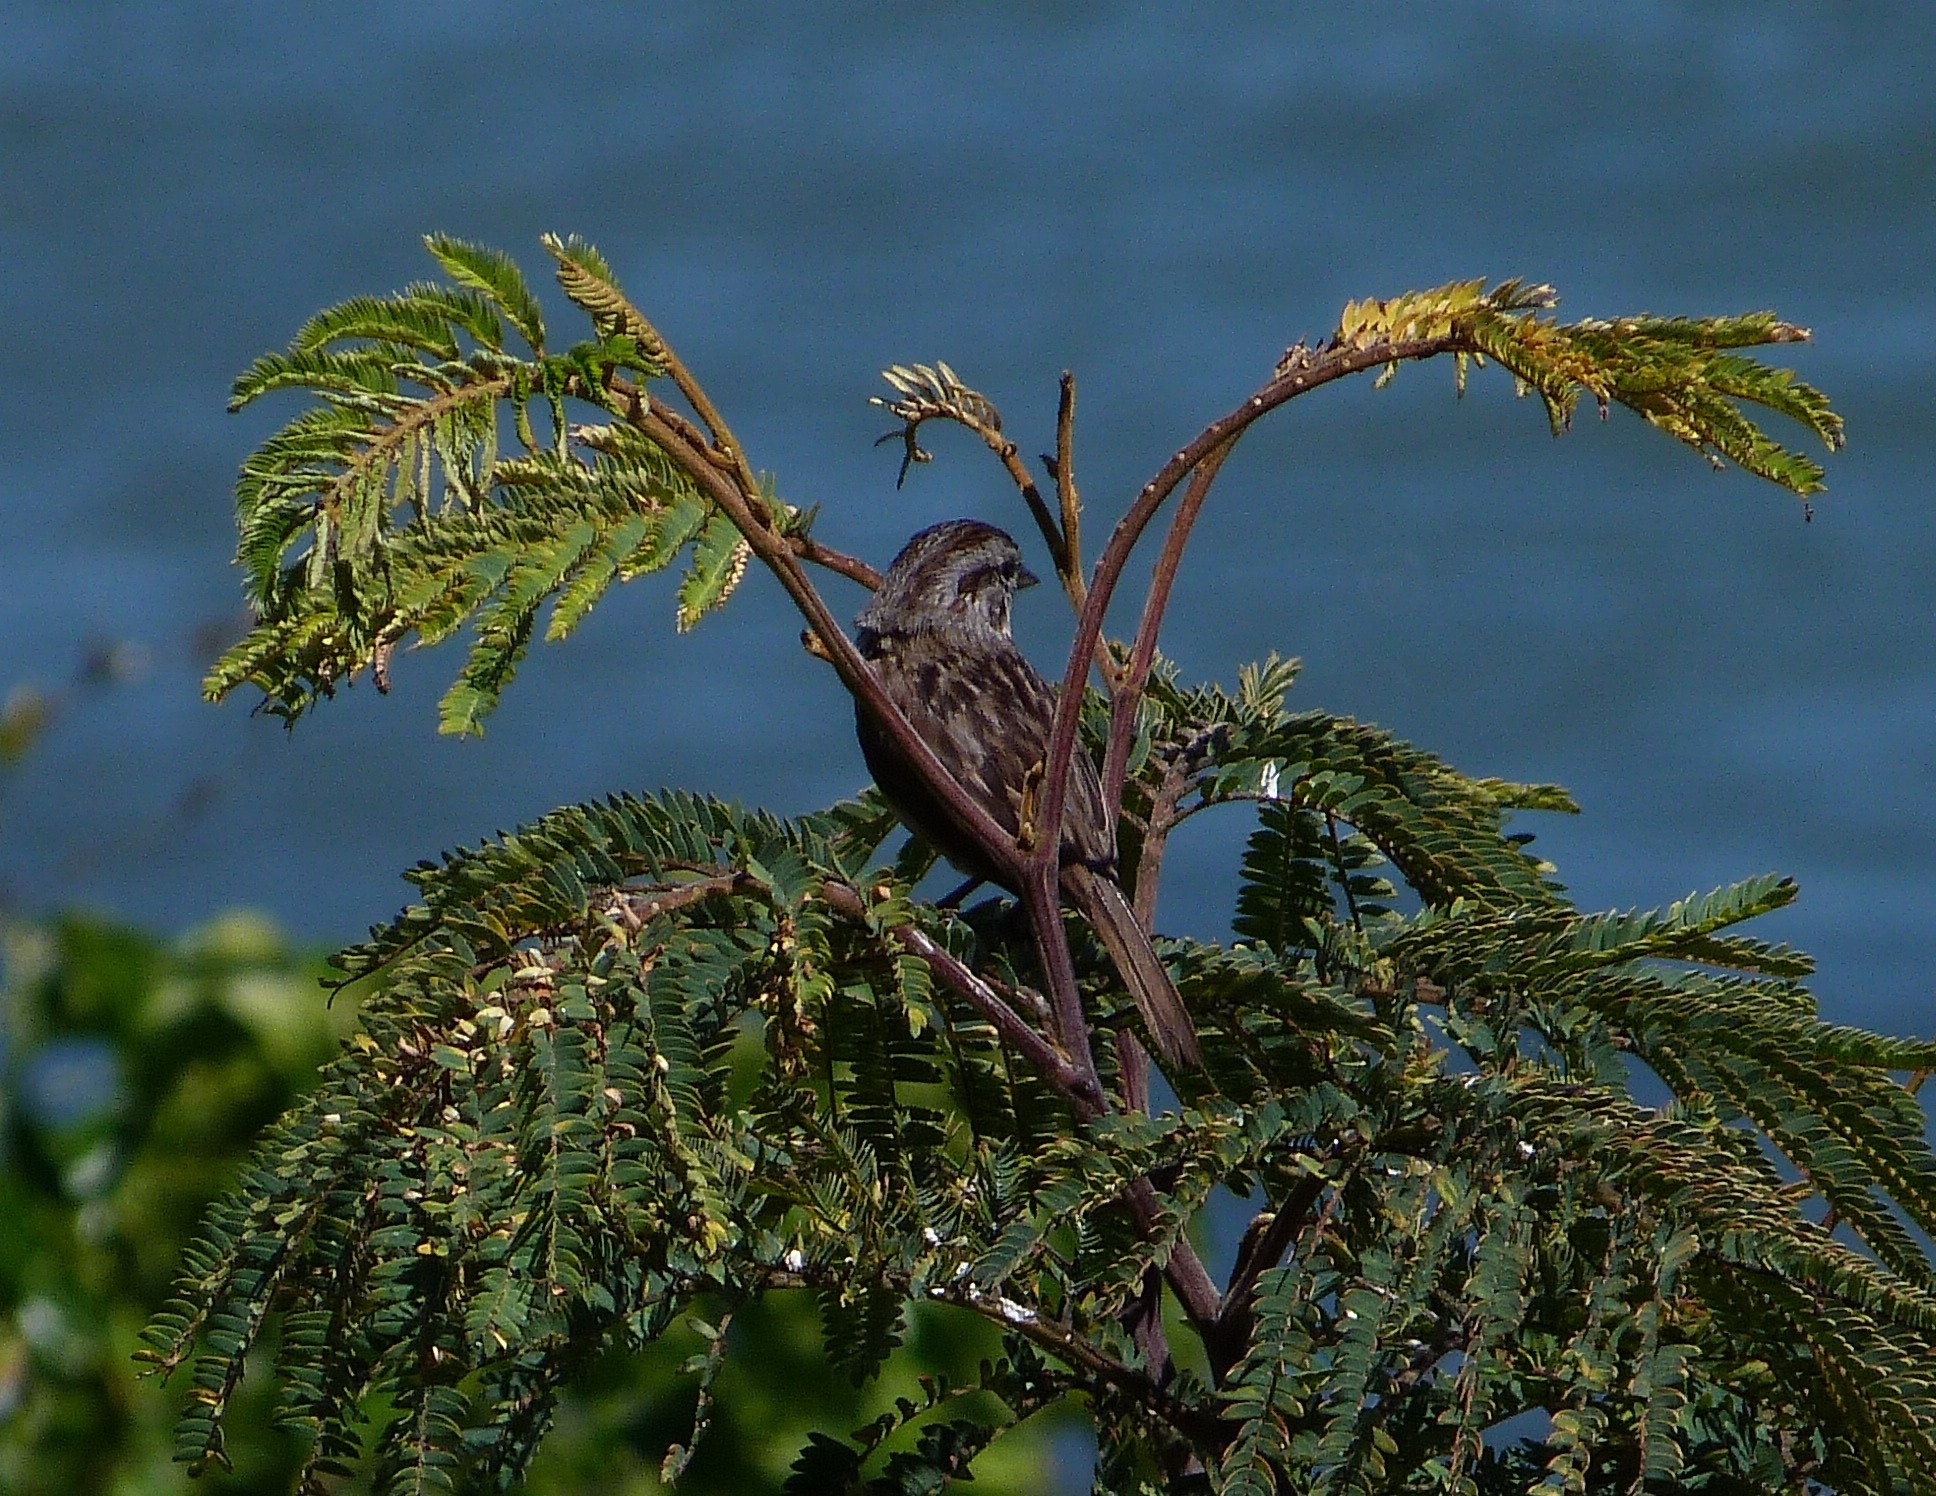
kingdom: Animalia
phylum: Chordata
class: Aves
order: Passeriformes
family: Passerellidae
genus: Melospiza
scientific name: Melospiza melodia
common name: Song sparrow
